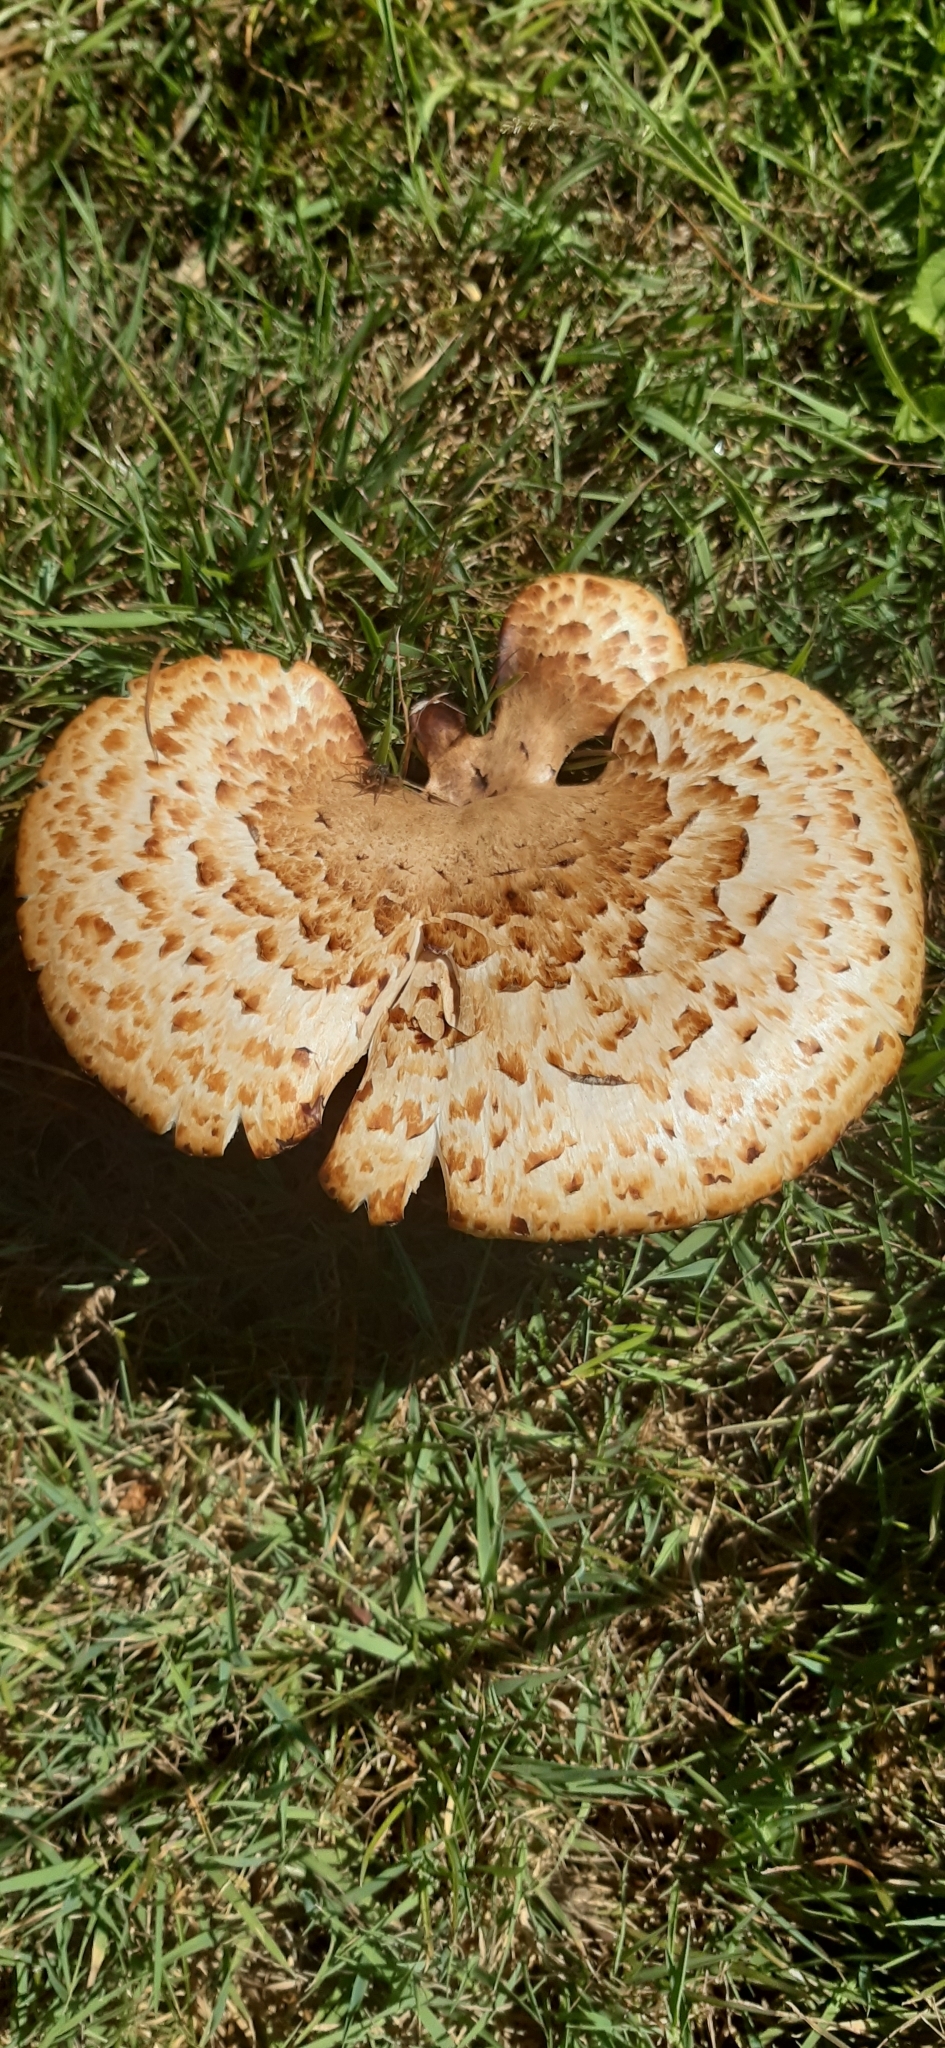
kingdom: Fungi
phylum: Basidiomycota
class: Agaricomycetes
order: Polyporales
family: Polyporaceae
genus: Cerioporus
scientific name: Cerioporus squamosus
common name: Dryad's saddle
